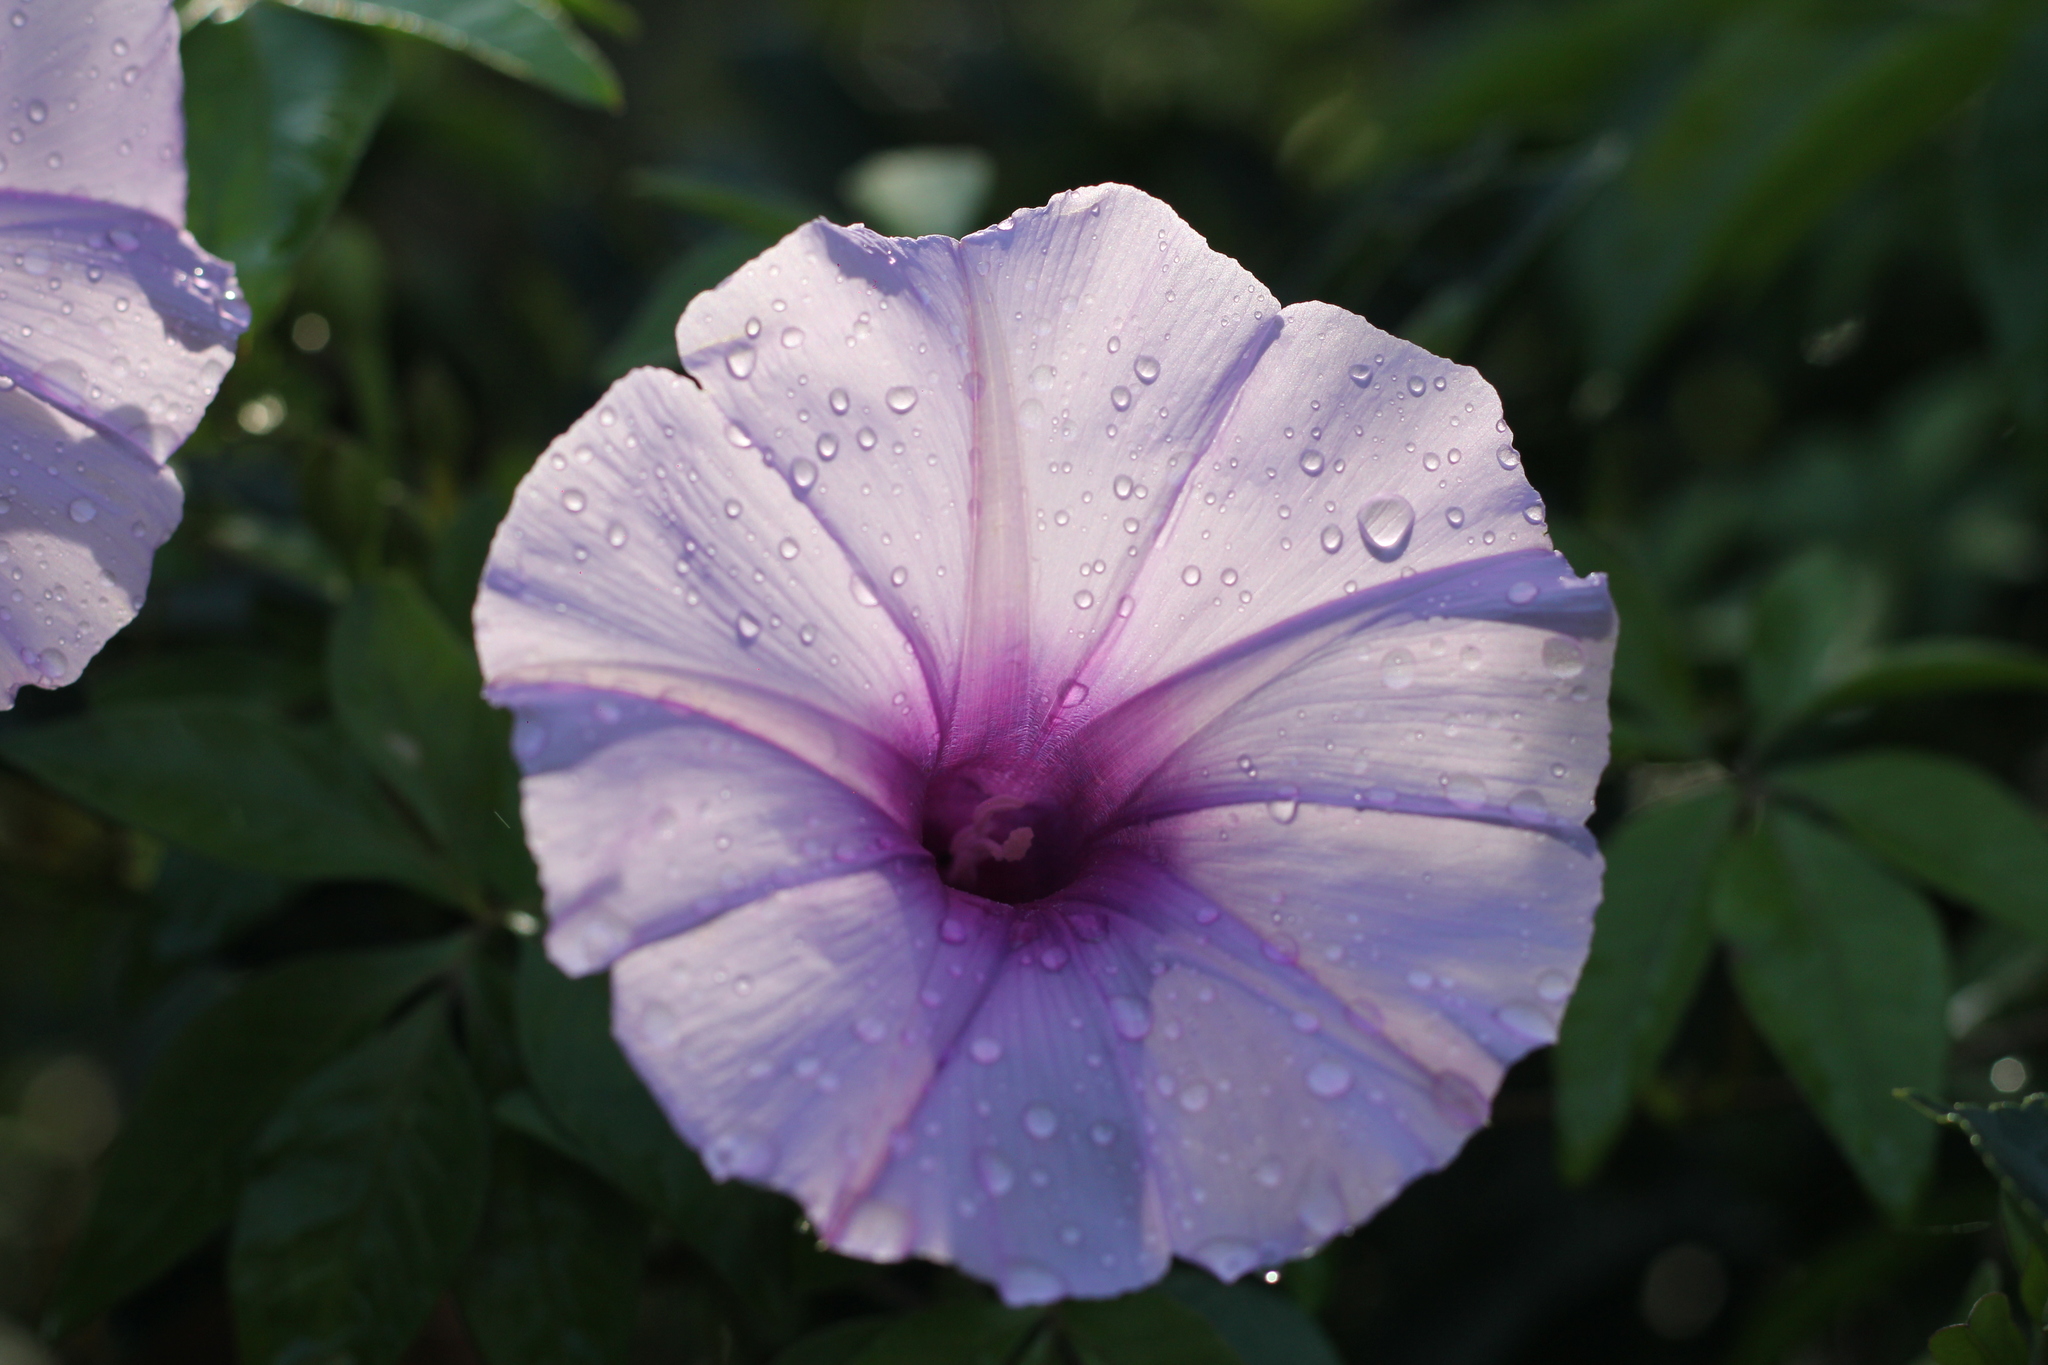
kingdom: Plantae
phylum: Tracheophyta
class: Magnoliopsida
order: Solanales
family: Convolvulaceae
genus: Ipomoea
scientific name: Ipomoea cairica
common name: Mile a minute vine
